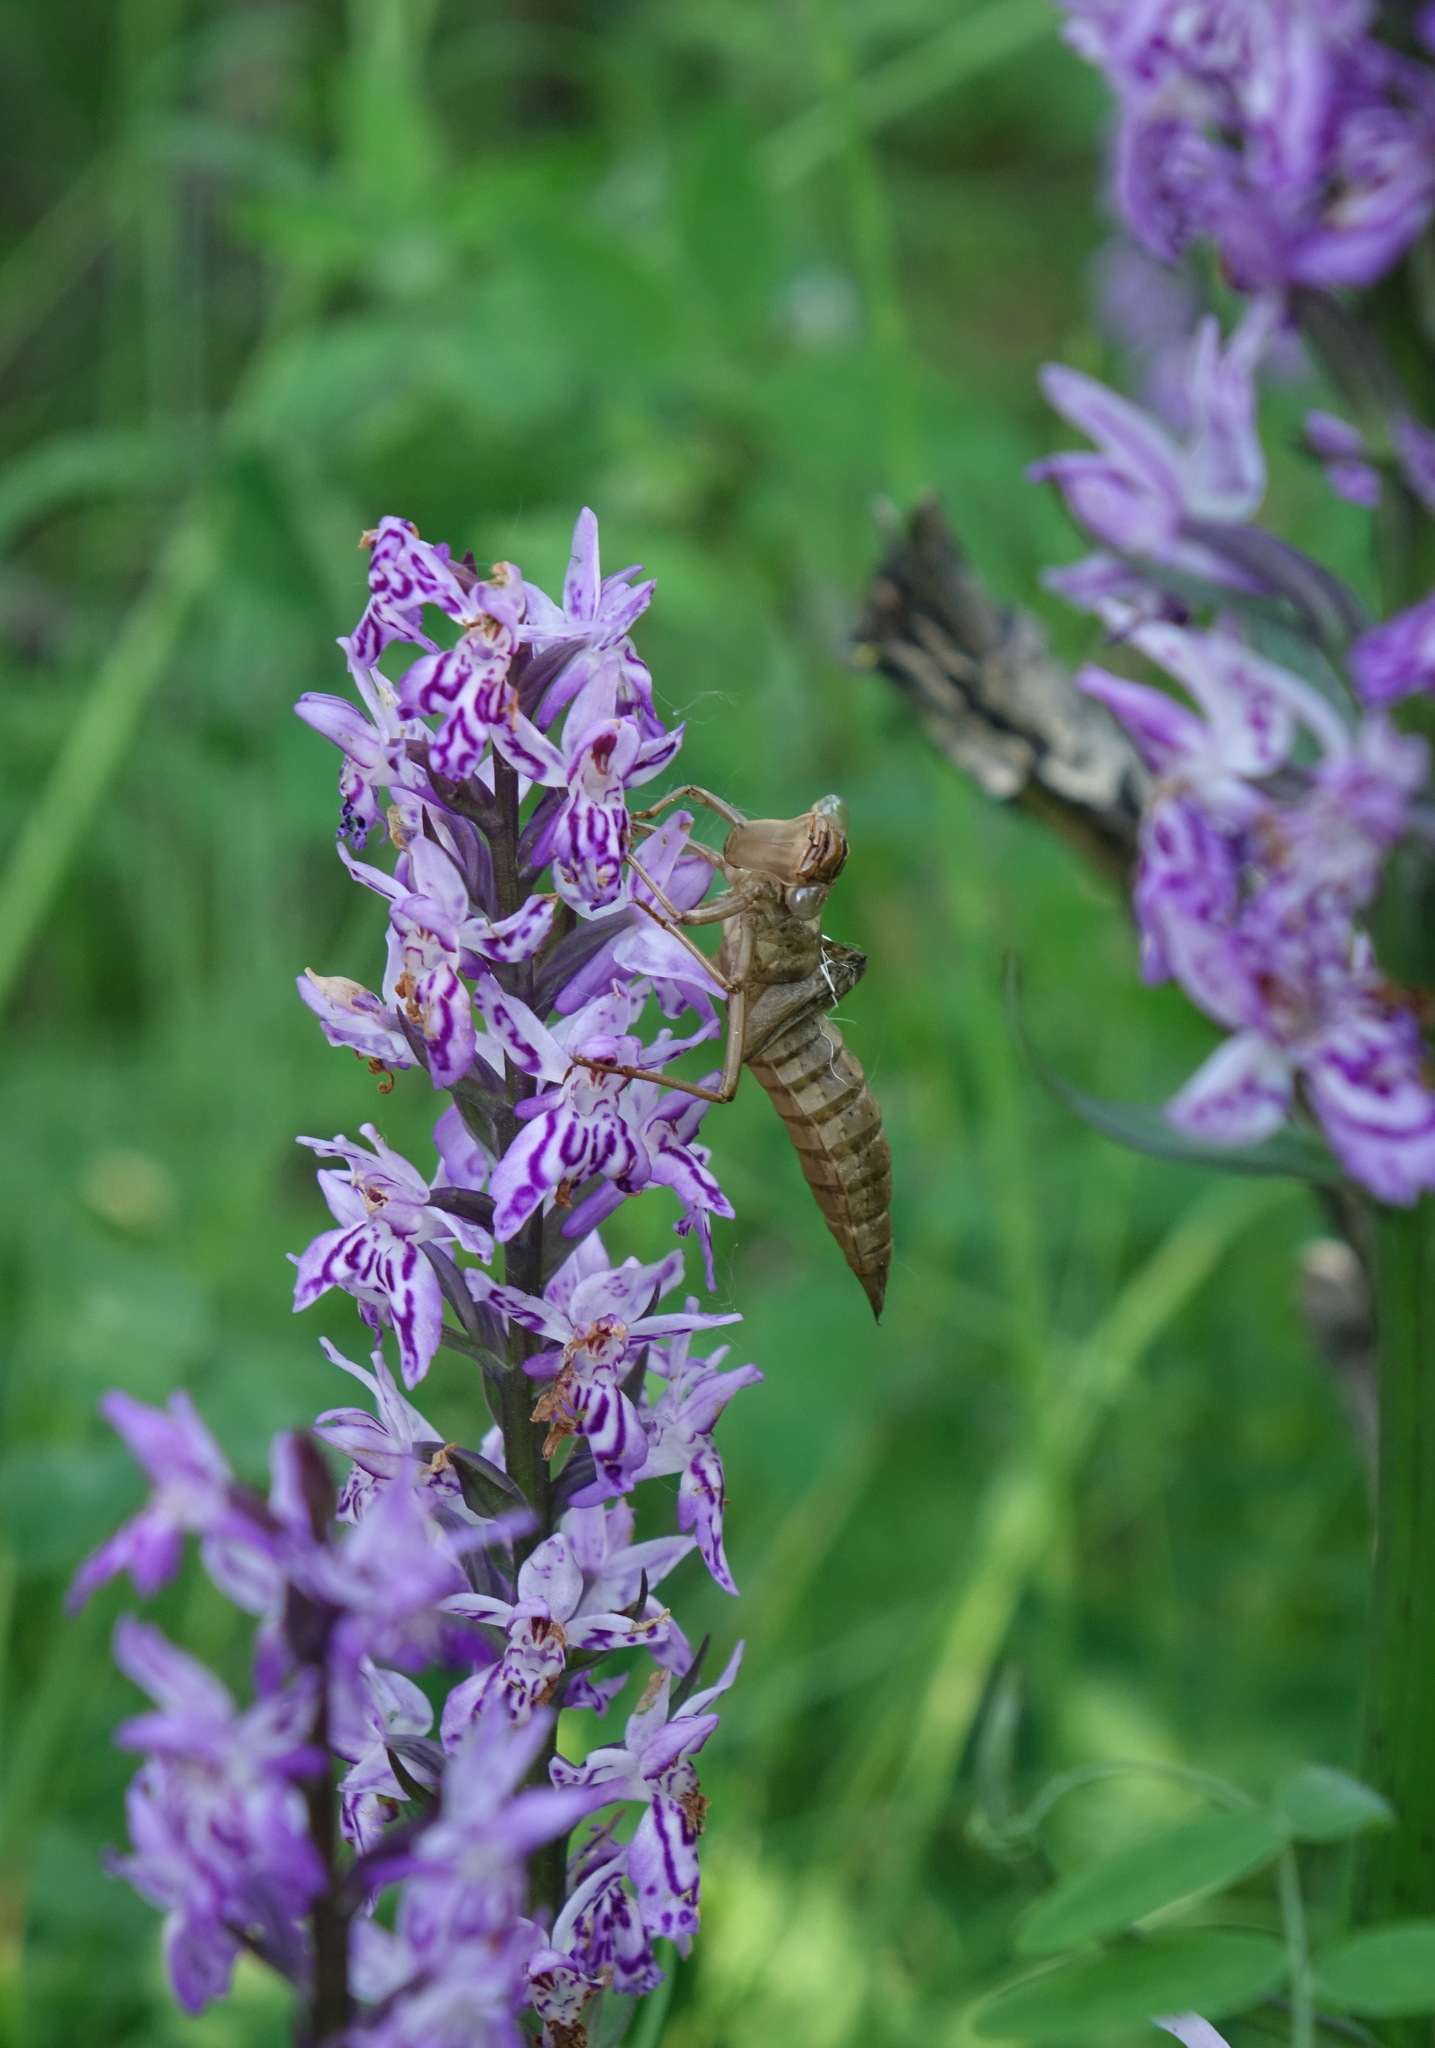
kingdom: Animalia
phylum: Arthropoda
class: Insecta
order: Odonata
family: Aeshnidae
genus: Aeshna
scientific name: Aeshna juncea
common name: Moorland hawker
